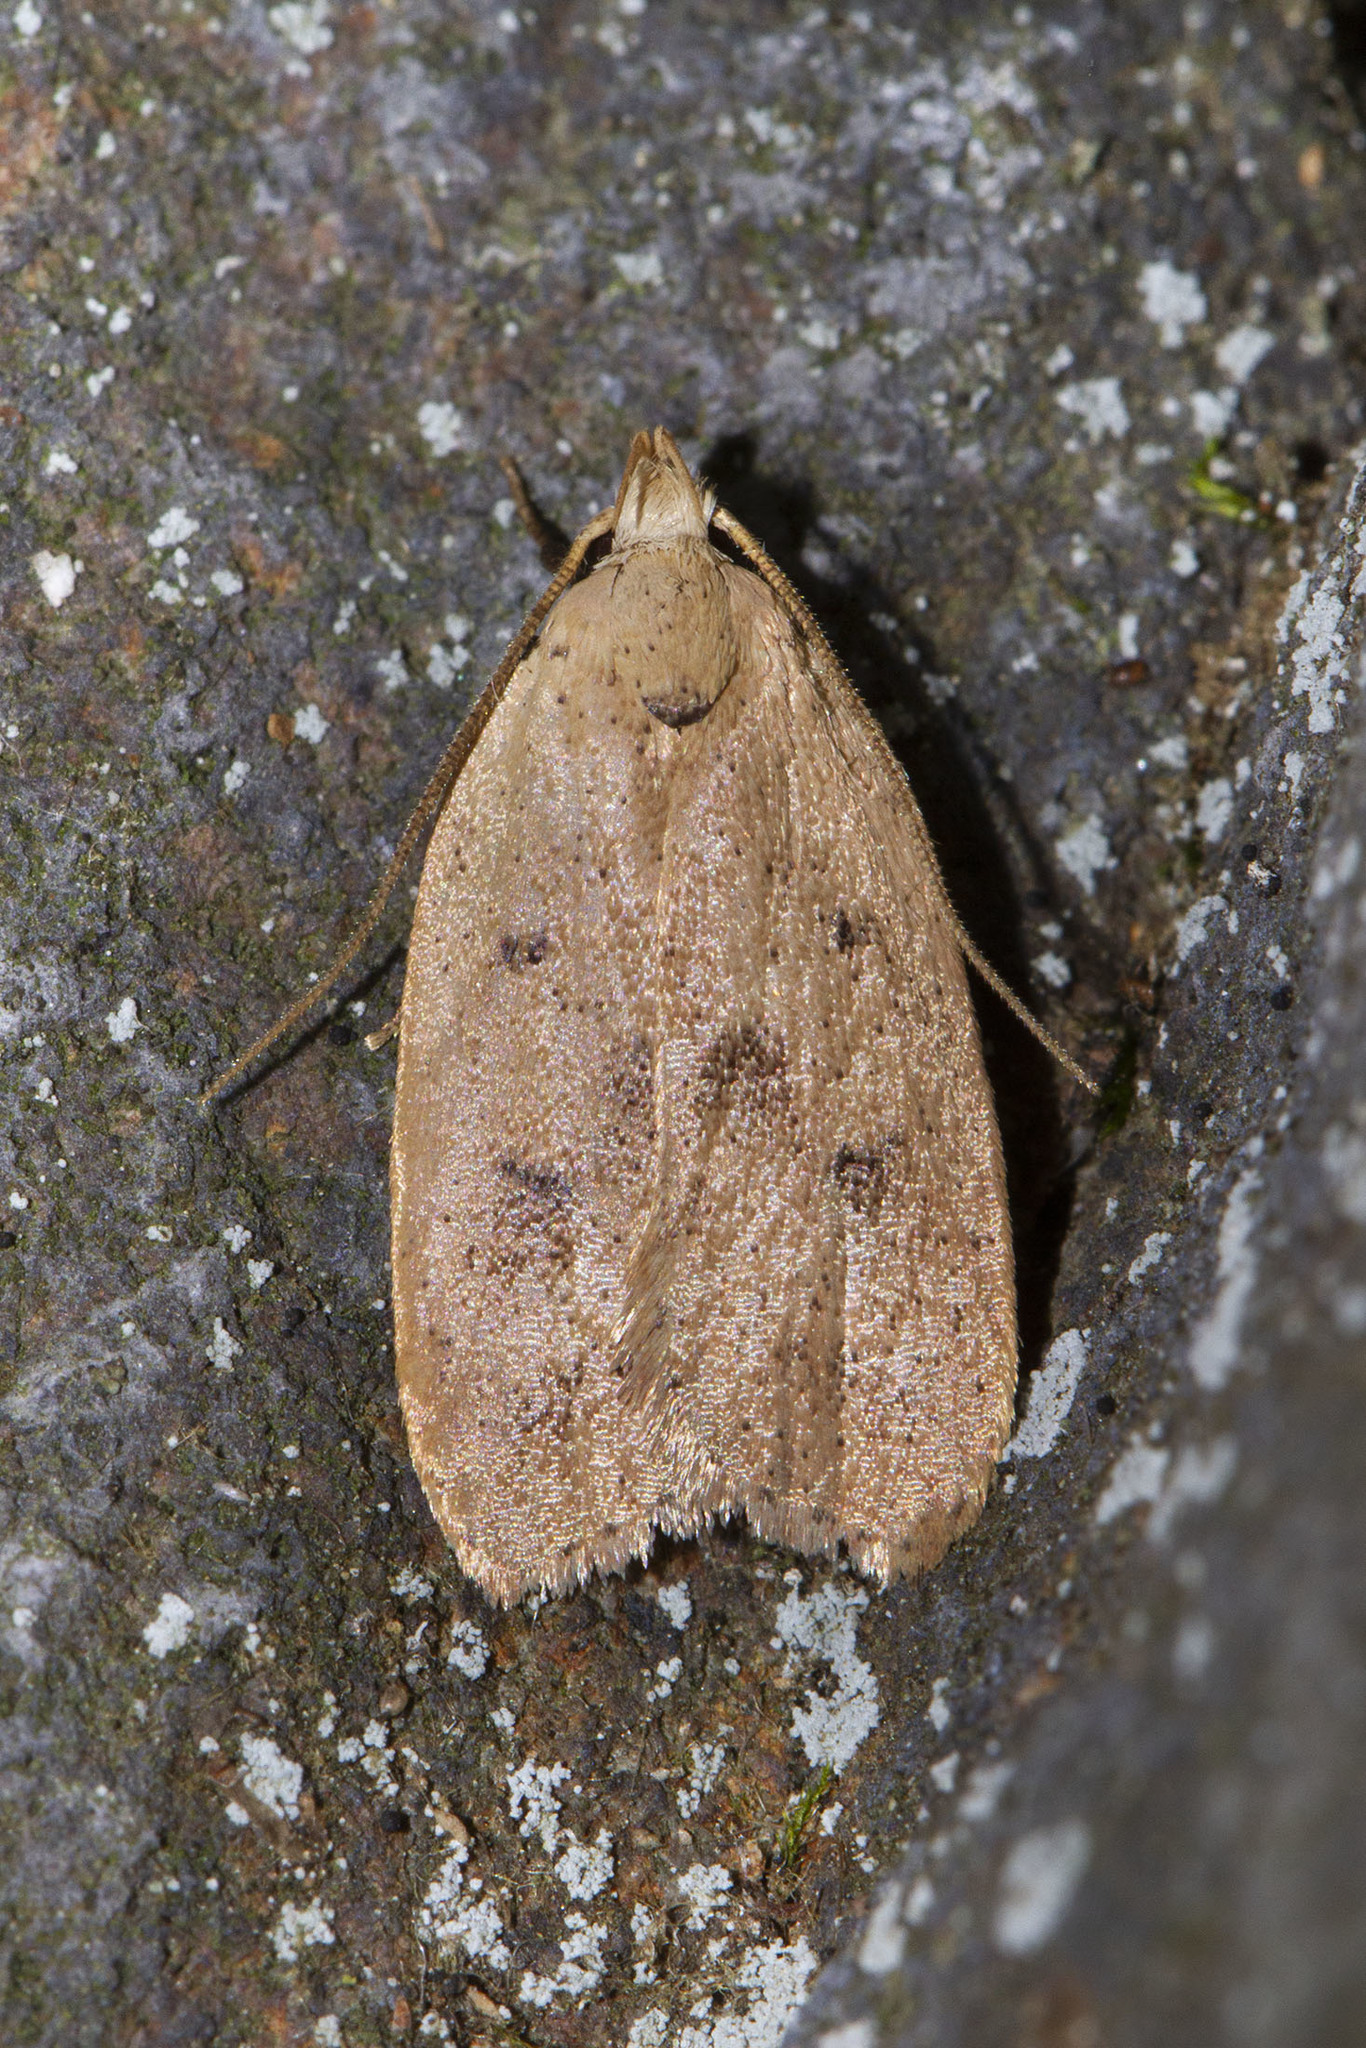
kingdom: Animalia
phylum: Arthropoda
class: Insecta
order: Lepidoptera
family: Peleopodidae
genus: Machimia
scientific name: Machimia tentoriferella
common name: Gold-striped leaftier moth
